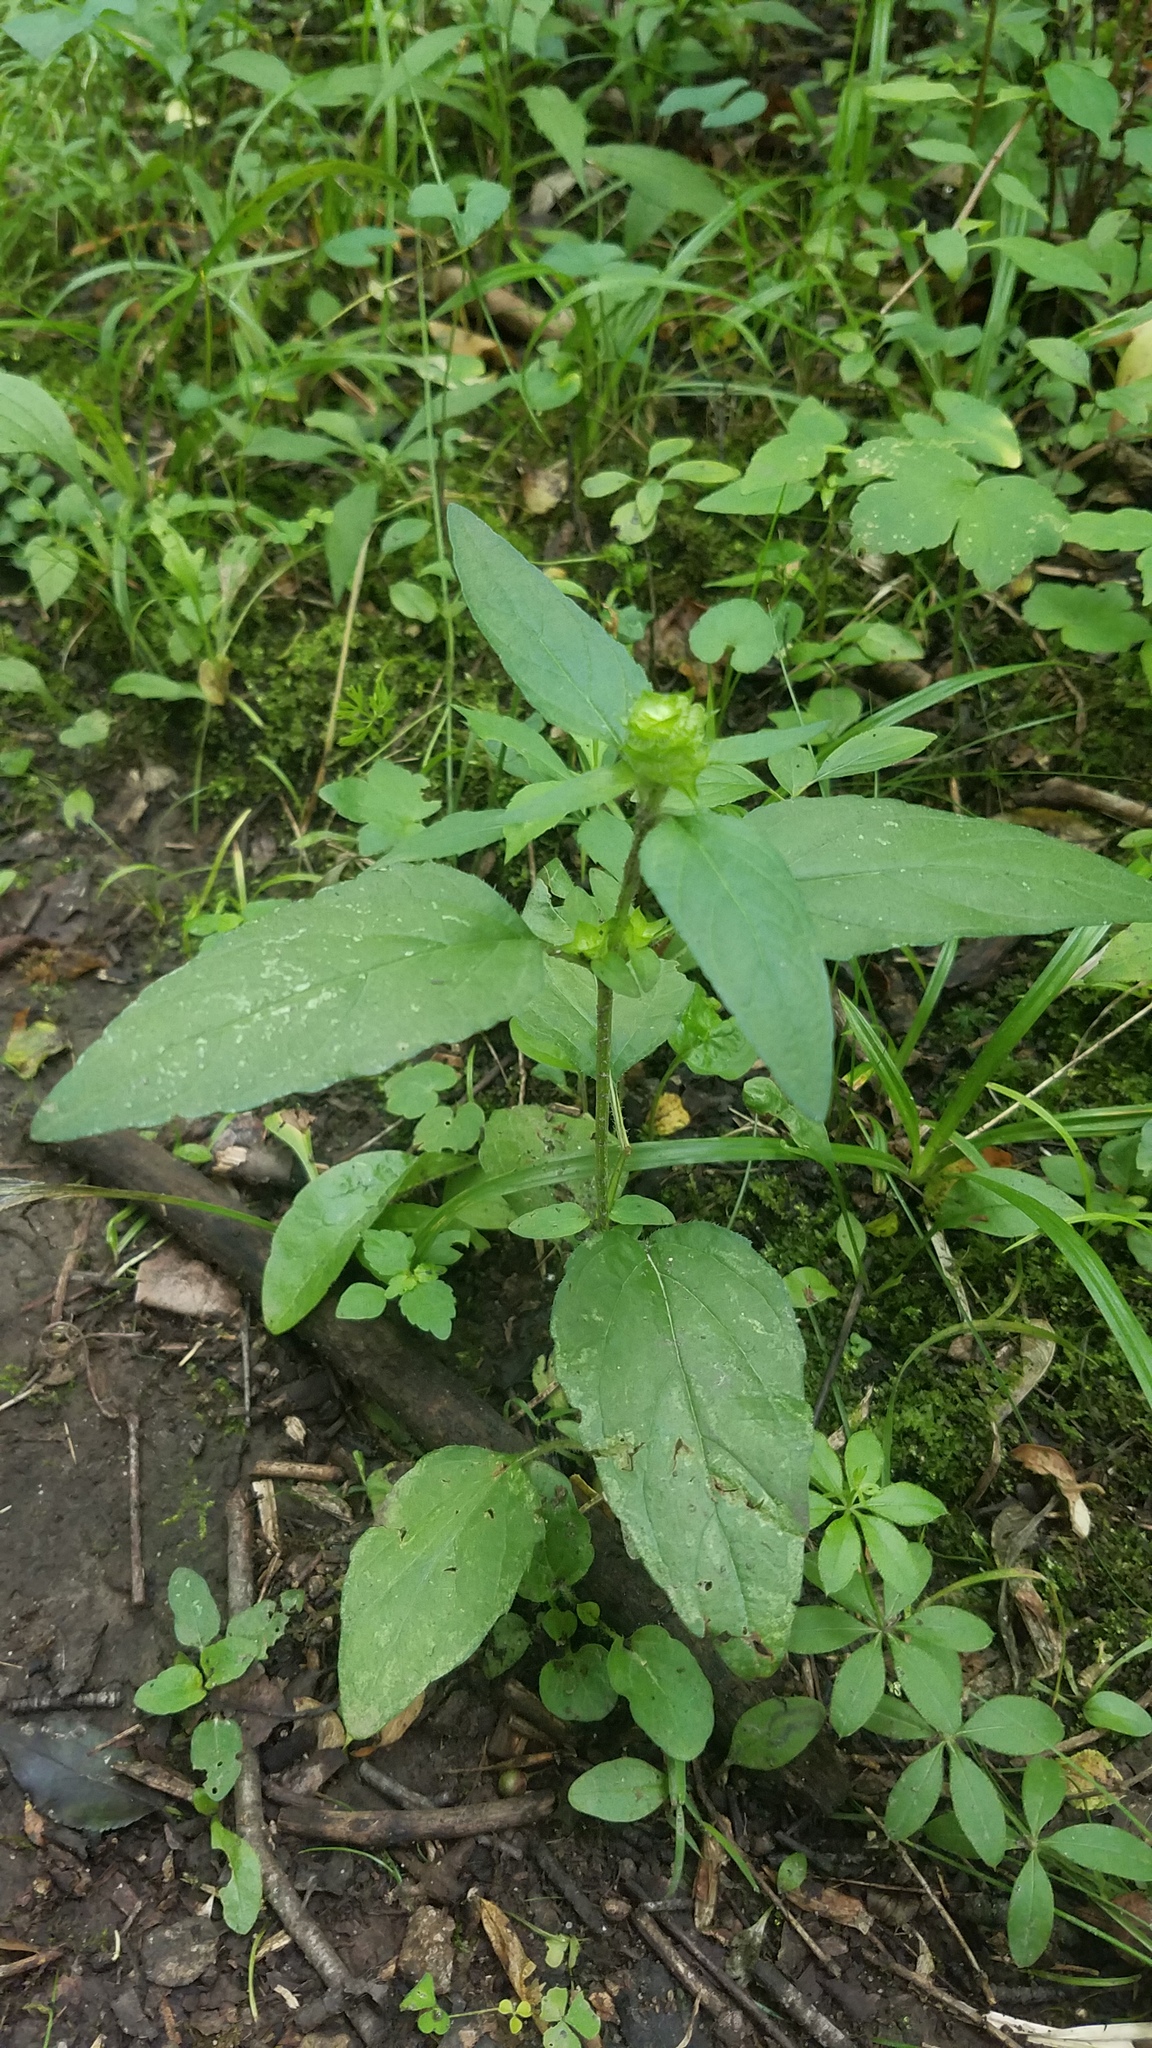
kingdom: Plantae
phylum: Tracheophyta
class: Magnoliopsida
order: Lamiales
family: Lamiaceae
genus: Prunella
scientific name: Prunella vulgaris
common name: Heal-all
